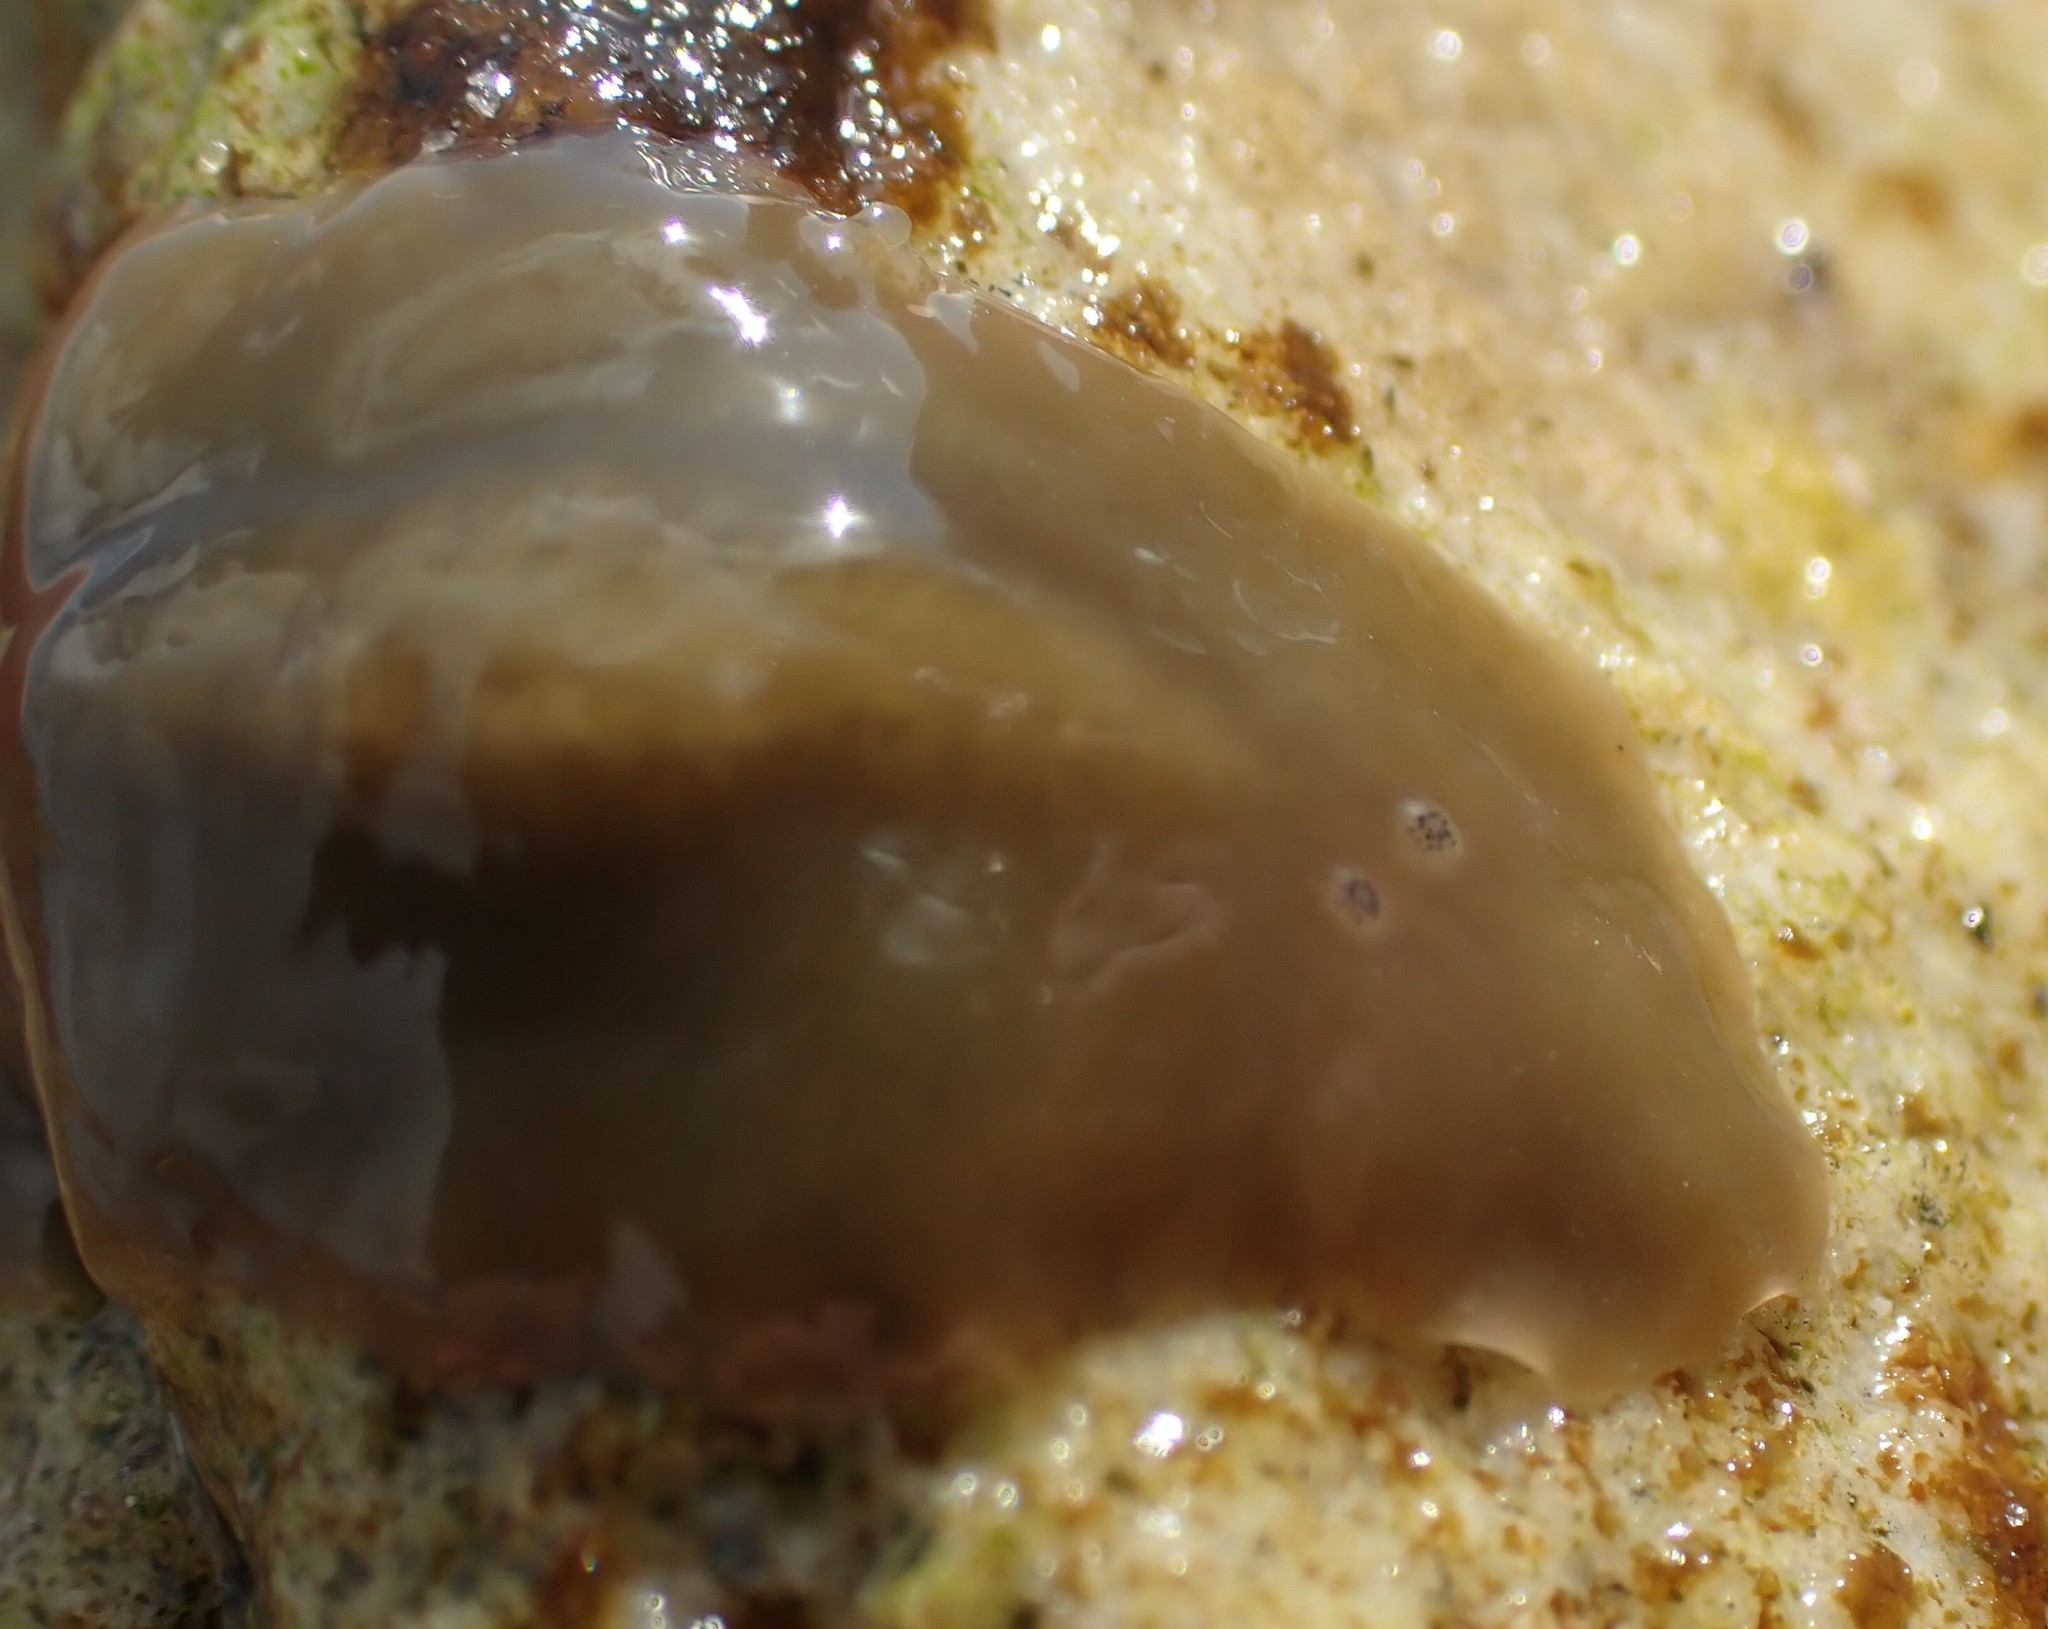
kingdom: Animalia
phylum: Platyhelminthes
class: Turbellaria
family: Notoplanidae
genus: Notoplana
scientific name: Notoplana australis
